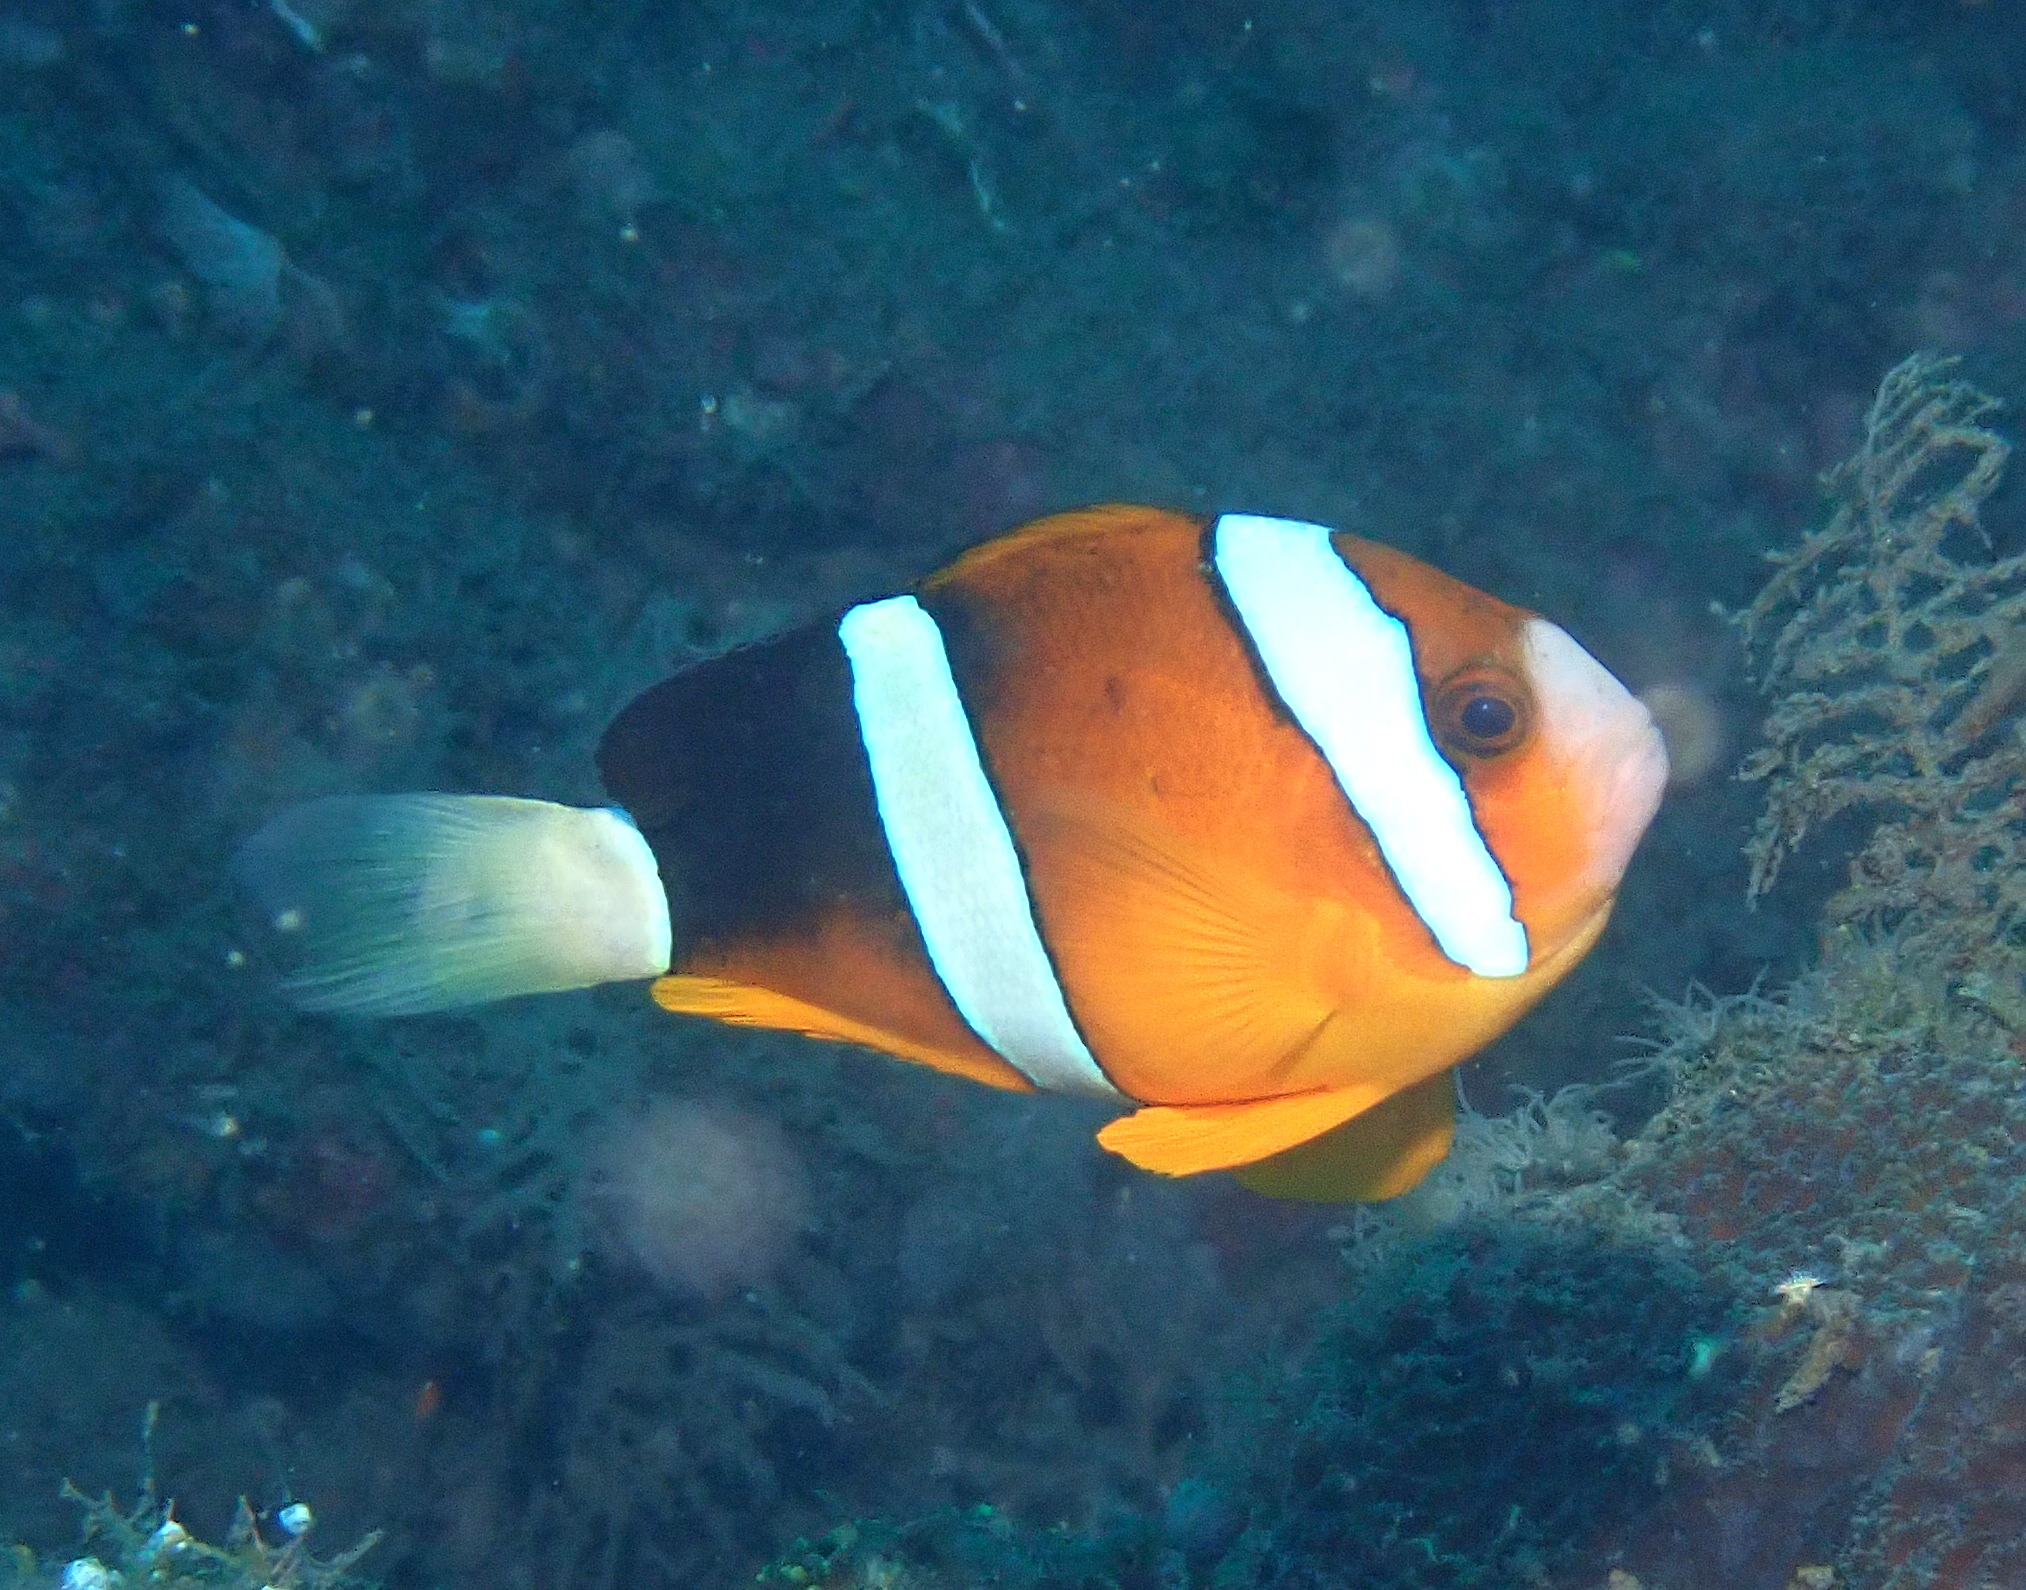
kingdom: Animalia
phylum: Chordata
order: Perciformes
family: Pomacentridae
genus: Amphiprion
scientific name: Amphiprion clarkii
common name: Clark's anemonefish
